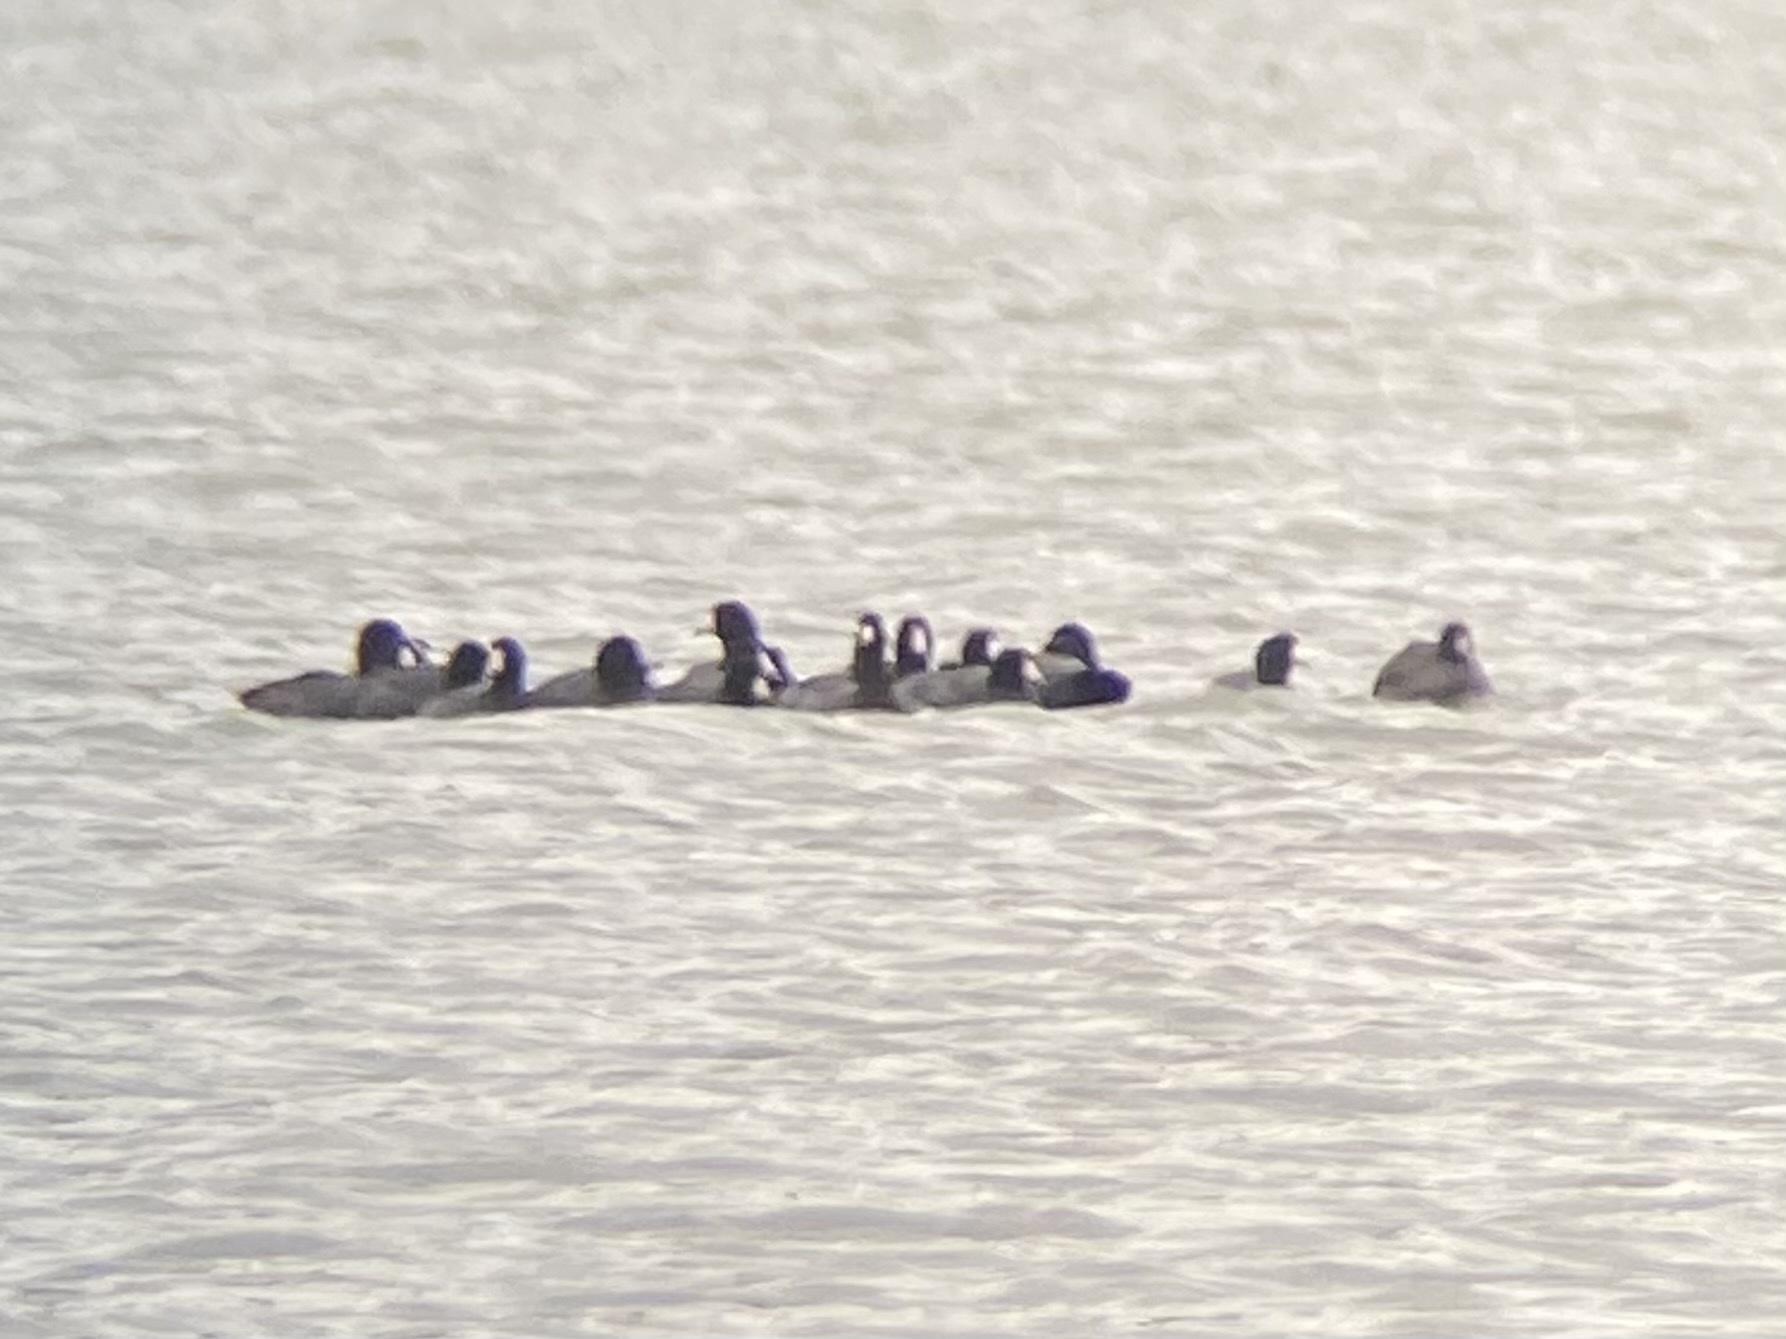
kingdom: Animalia
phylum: Chordata
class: Aves
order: Gruiformes
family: Rallidae
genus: Fulica
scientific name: Fulica americana
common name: American coot
